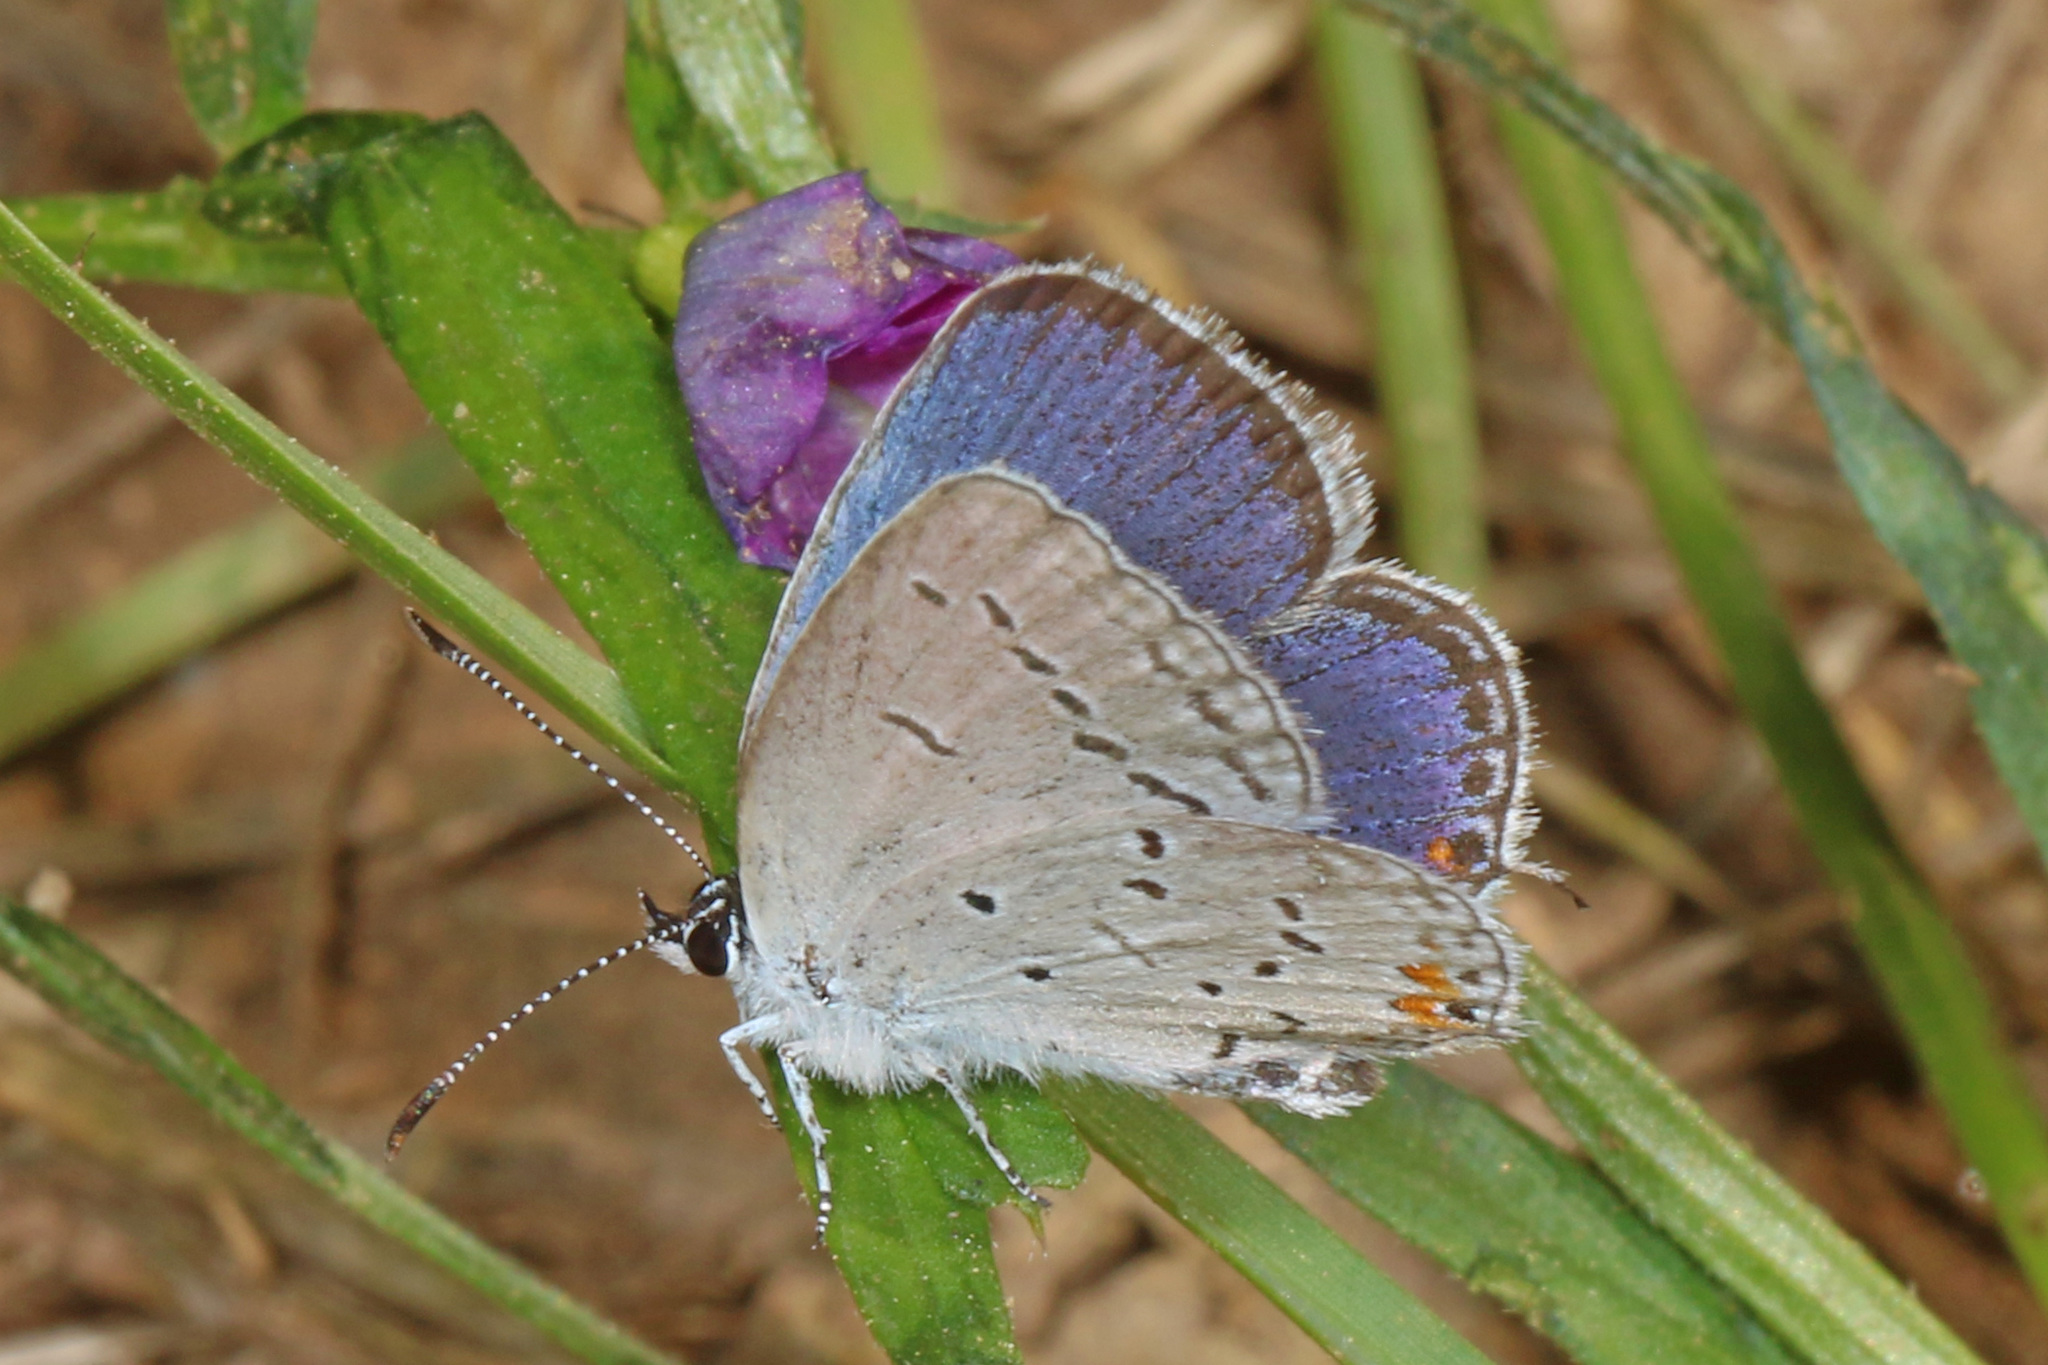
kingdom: Animalia
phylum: Arthropoda
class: Insecta
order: Lepidoptera
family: Lycaenidae
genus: Elkalyce
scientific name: Elkalyce comyntas
